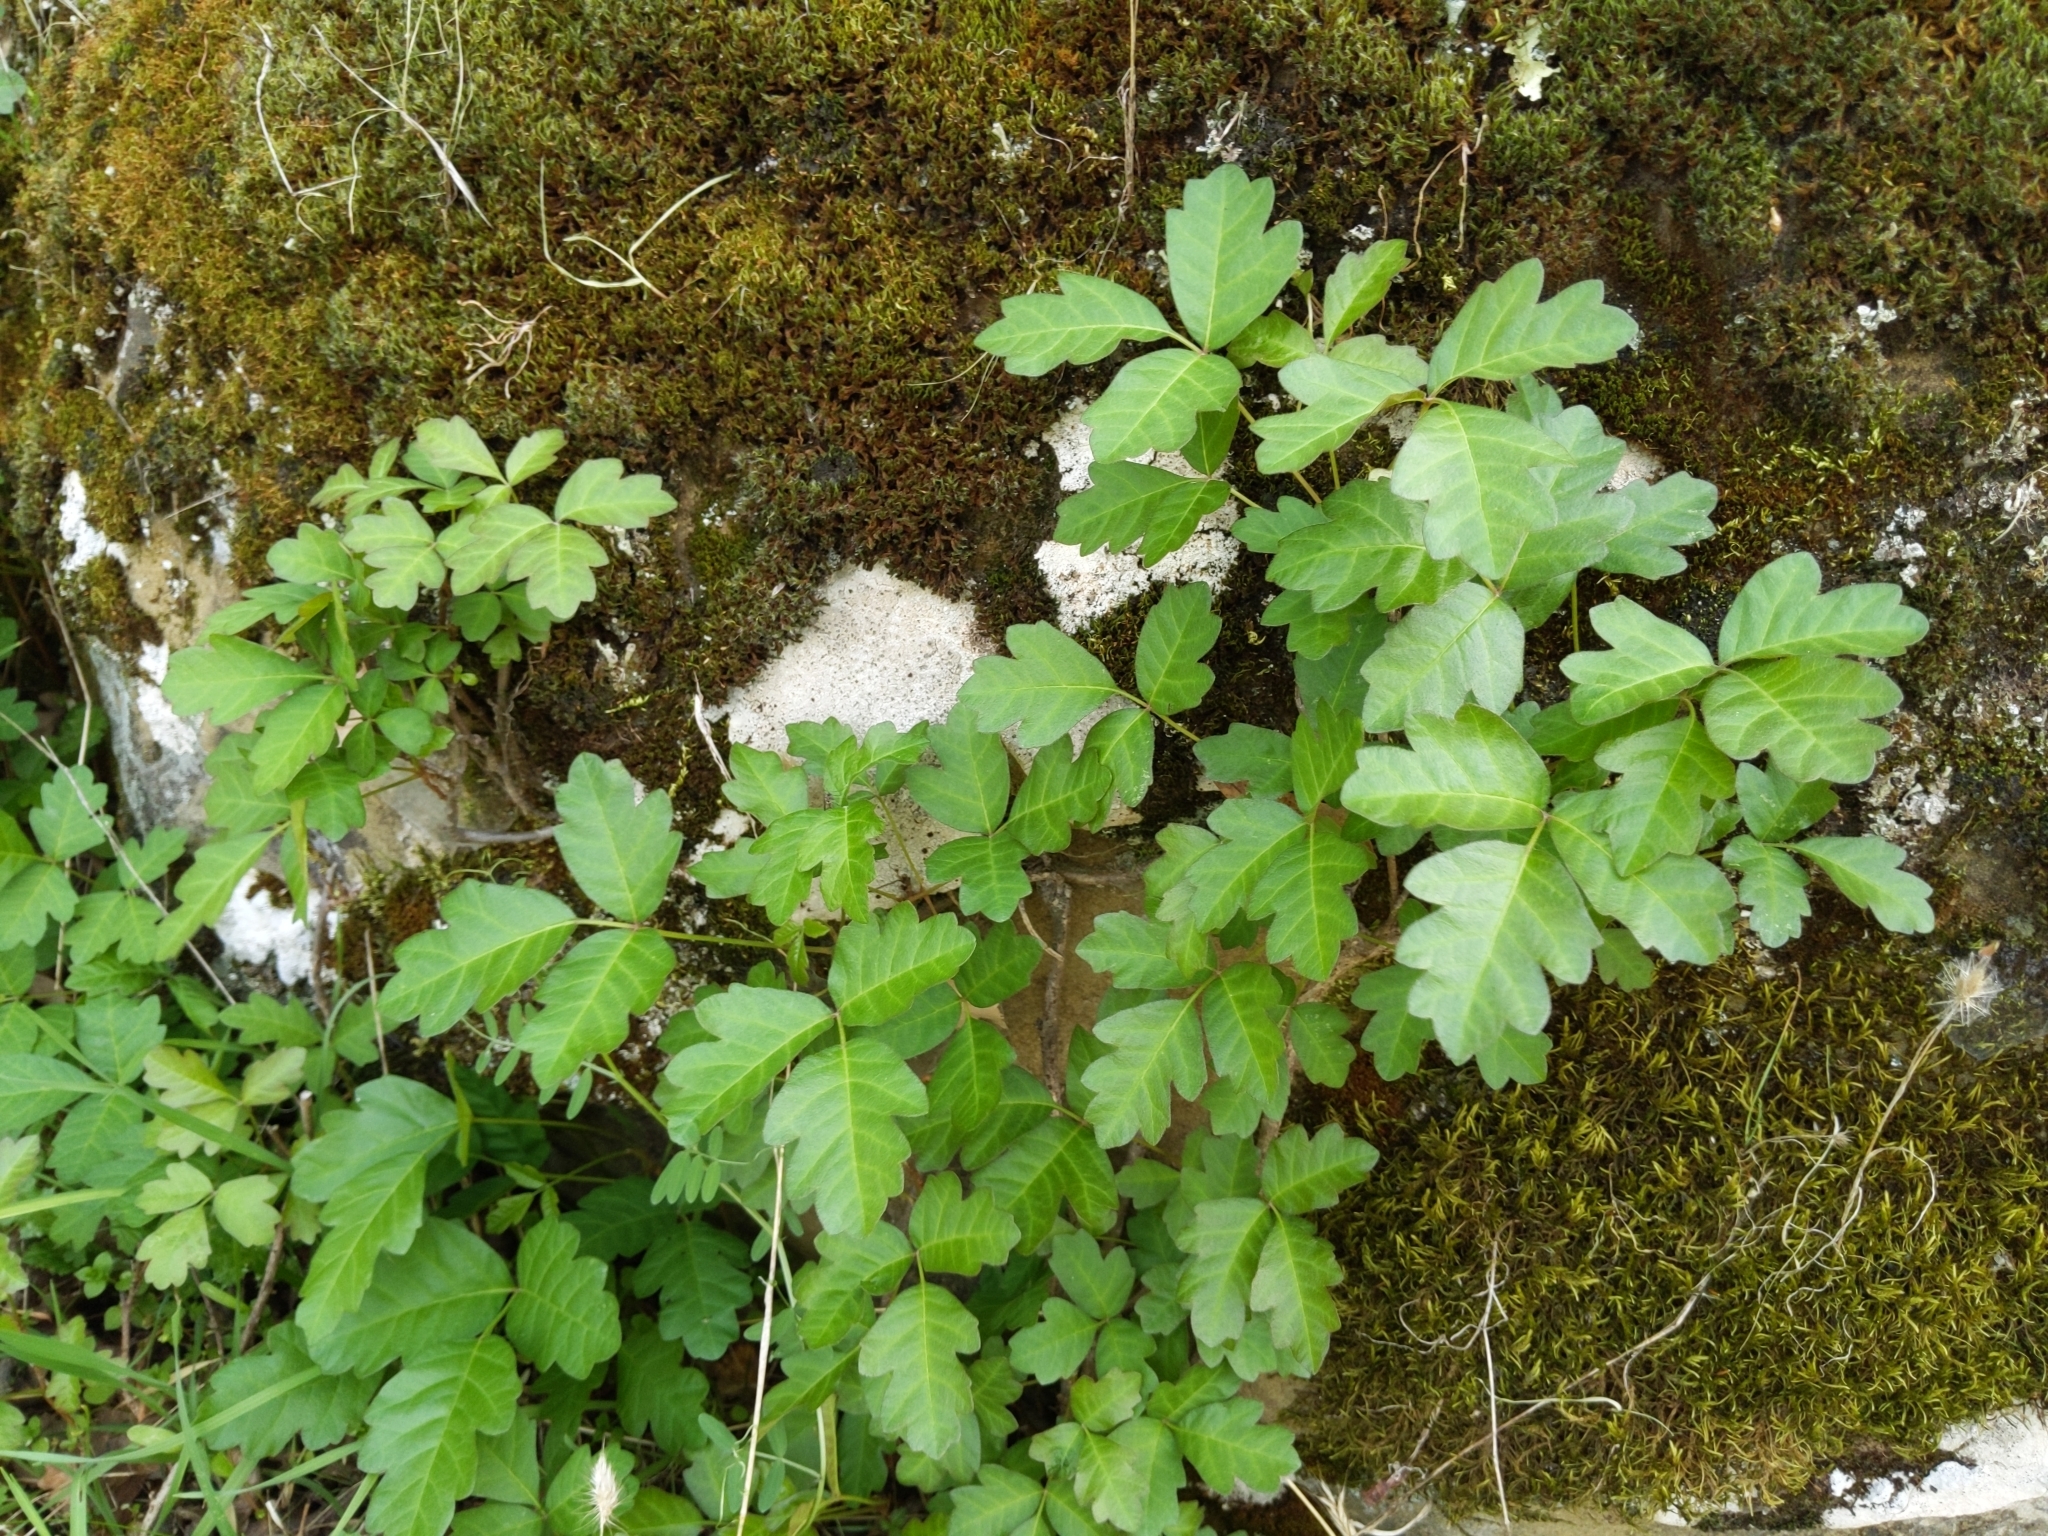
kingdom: Plantae
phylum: Tracheophyta
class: Magnoliopsida
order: Sapindales
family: Anacardiaceae
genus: Toxicodendron
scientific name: Toxicodendron diversilobum
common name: Pacific poison-oak
